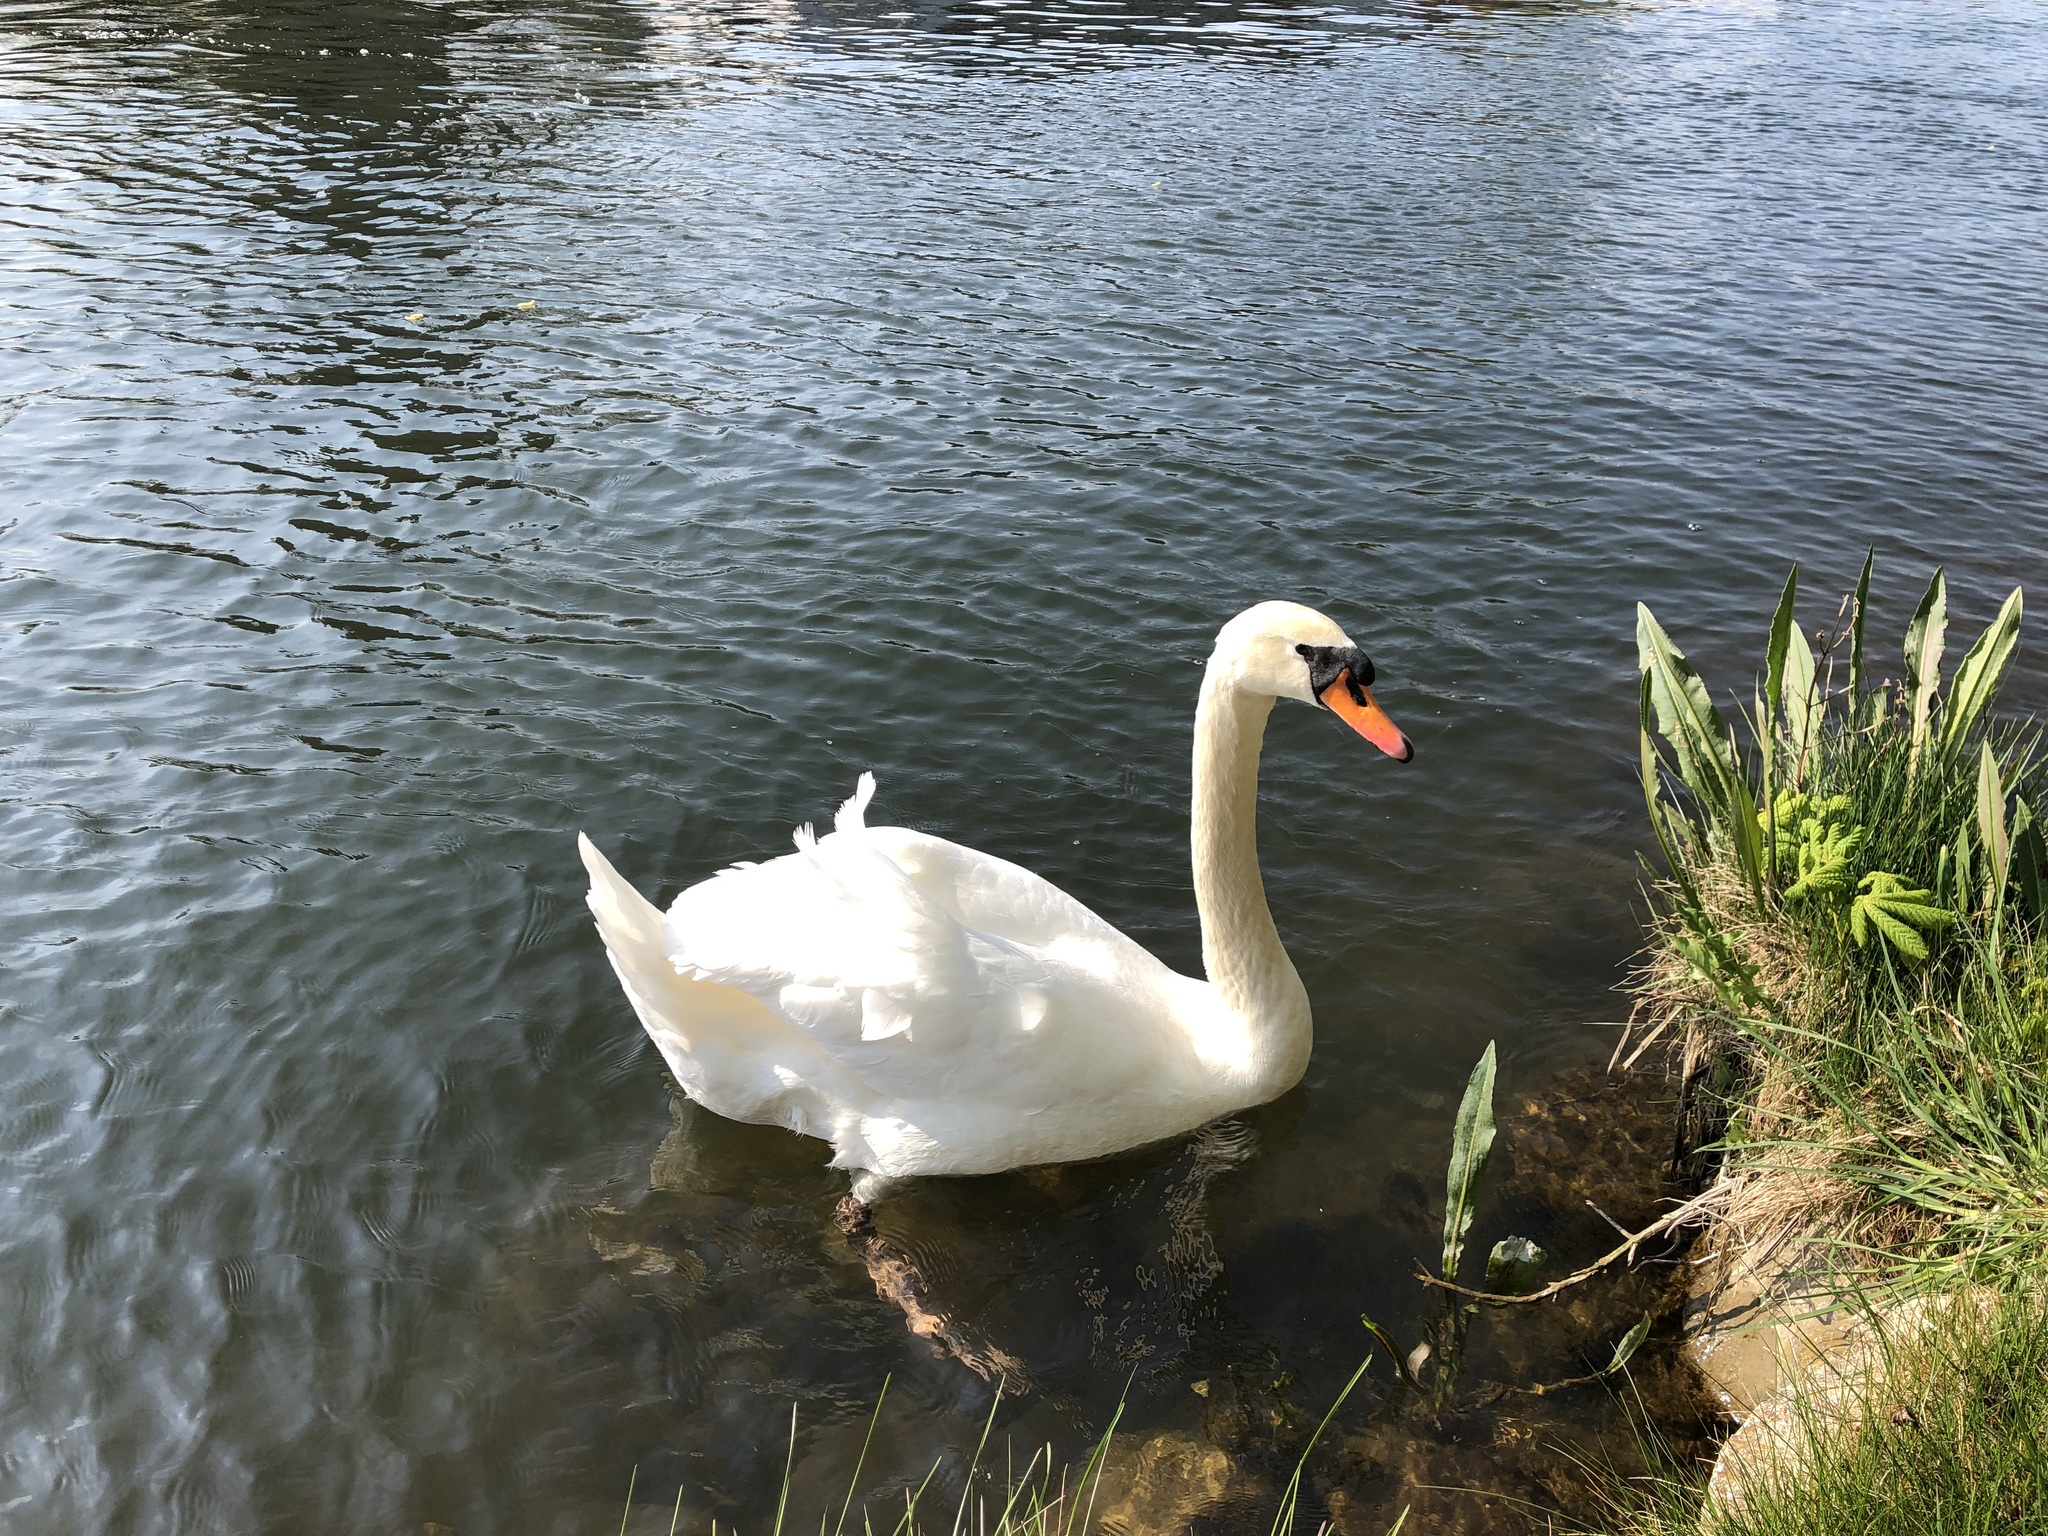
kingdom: Animalia
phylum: Chordata
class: Aves
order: Anseriformes
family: Anatidae
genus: Cygnus
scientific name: Cygnus olor
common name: Mute swan
